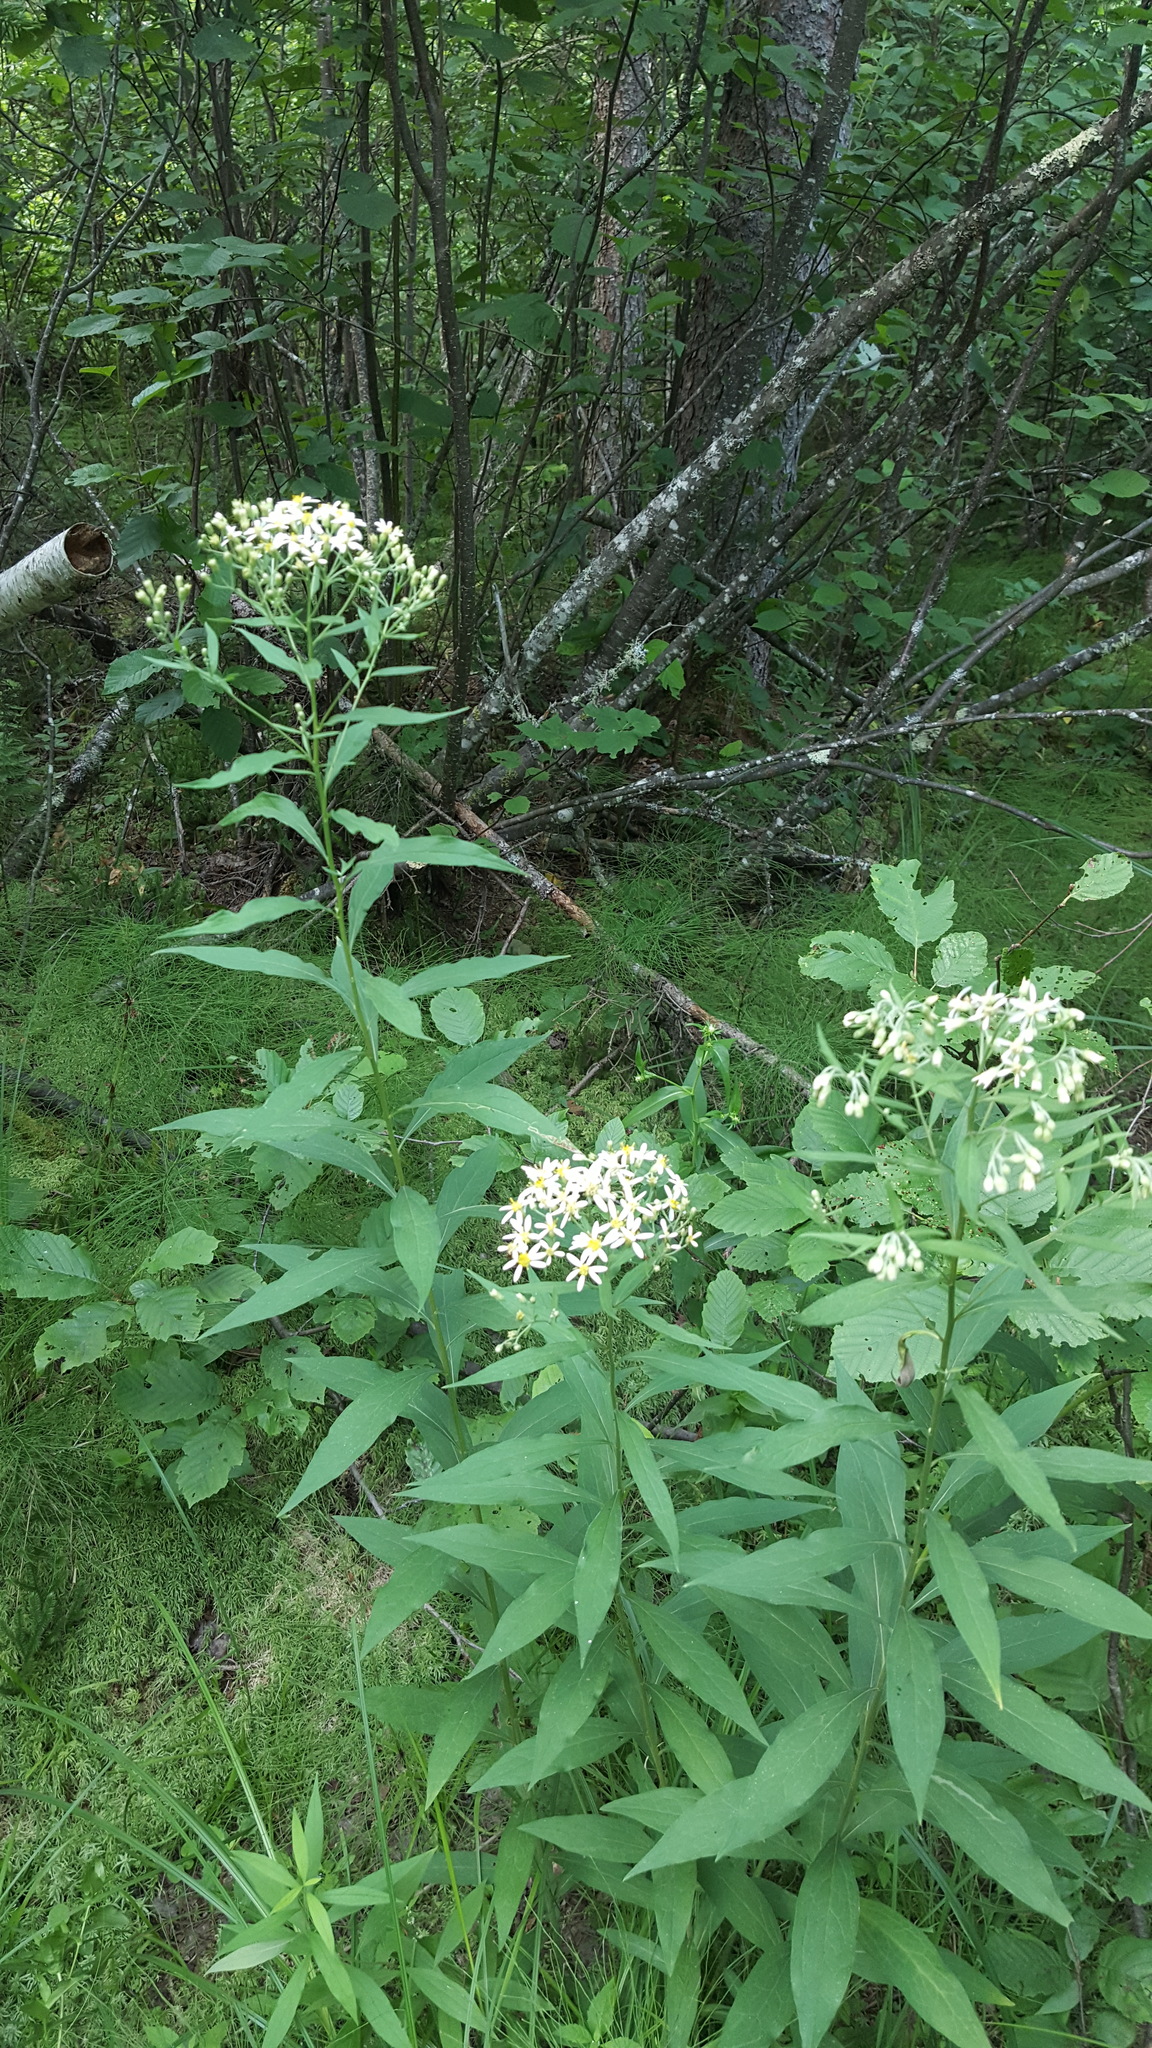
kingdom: Plantae
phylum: Tracheophyta
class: Magnoliopsida
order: Asterales
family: Asteraceae
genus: Doellingeria
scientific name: Doellingeria umbellata
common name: Flat-top white aster
